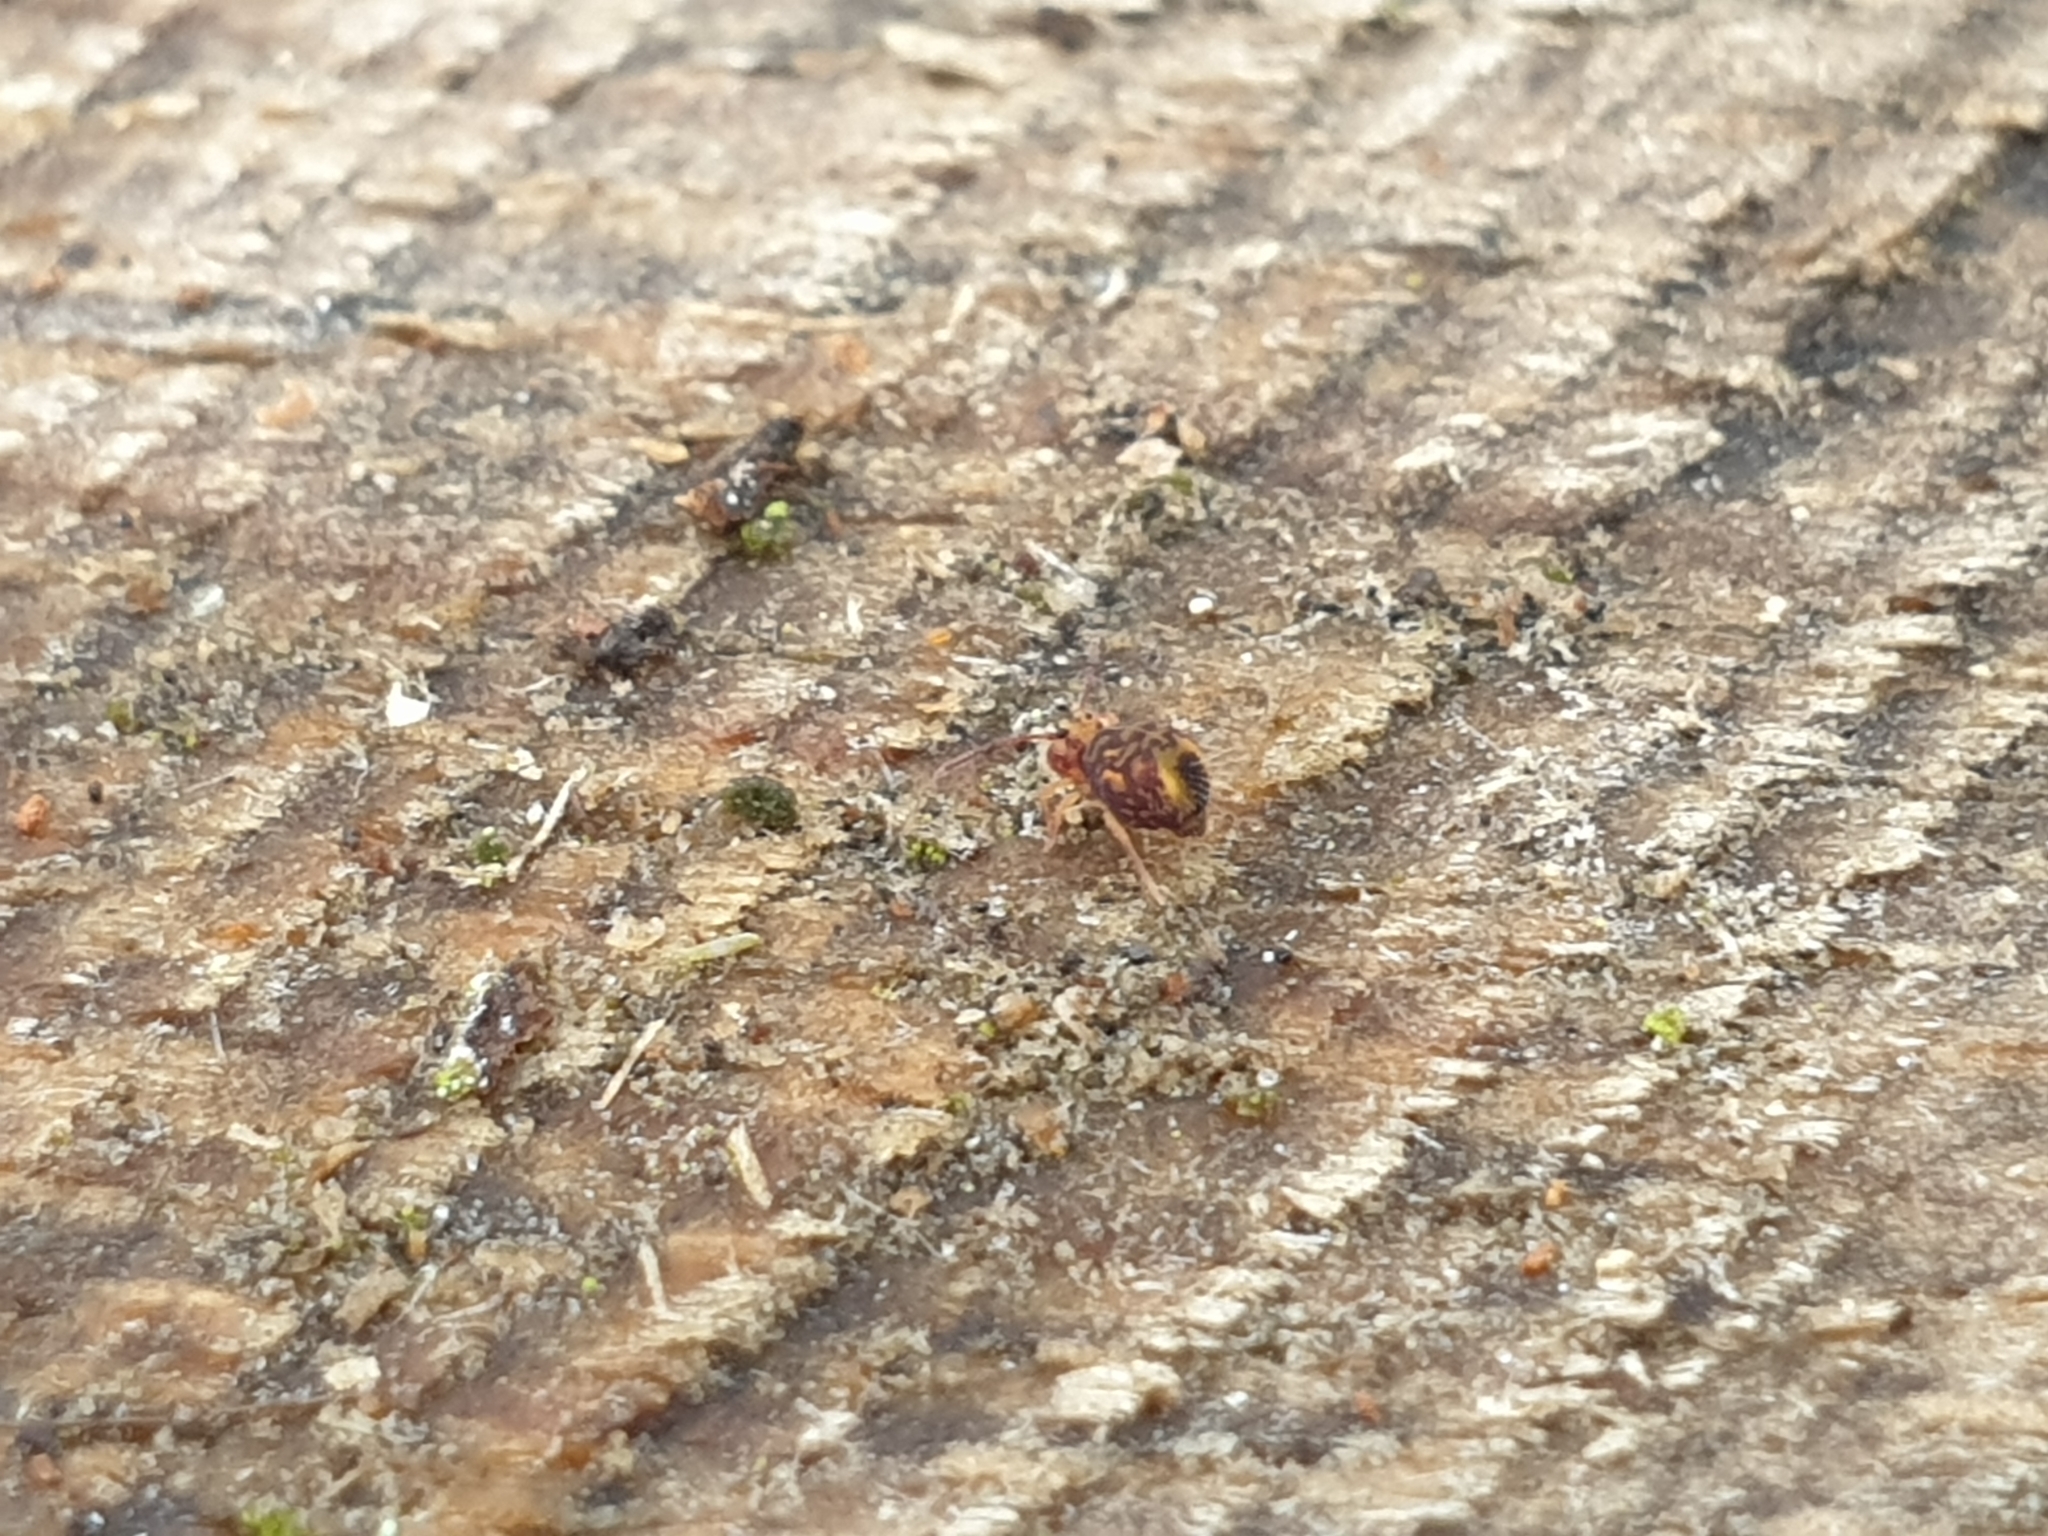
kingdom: Animalia
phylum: Arthropoda
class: Collembola
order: Symphypleona
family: Dicyrtomidae
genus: Dicyrtomina
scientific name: Dicyrtomina ornata
